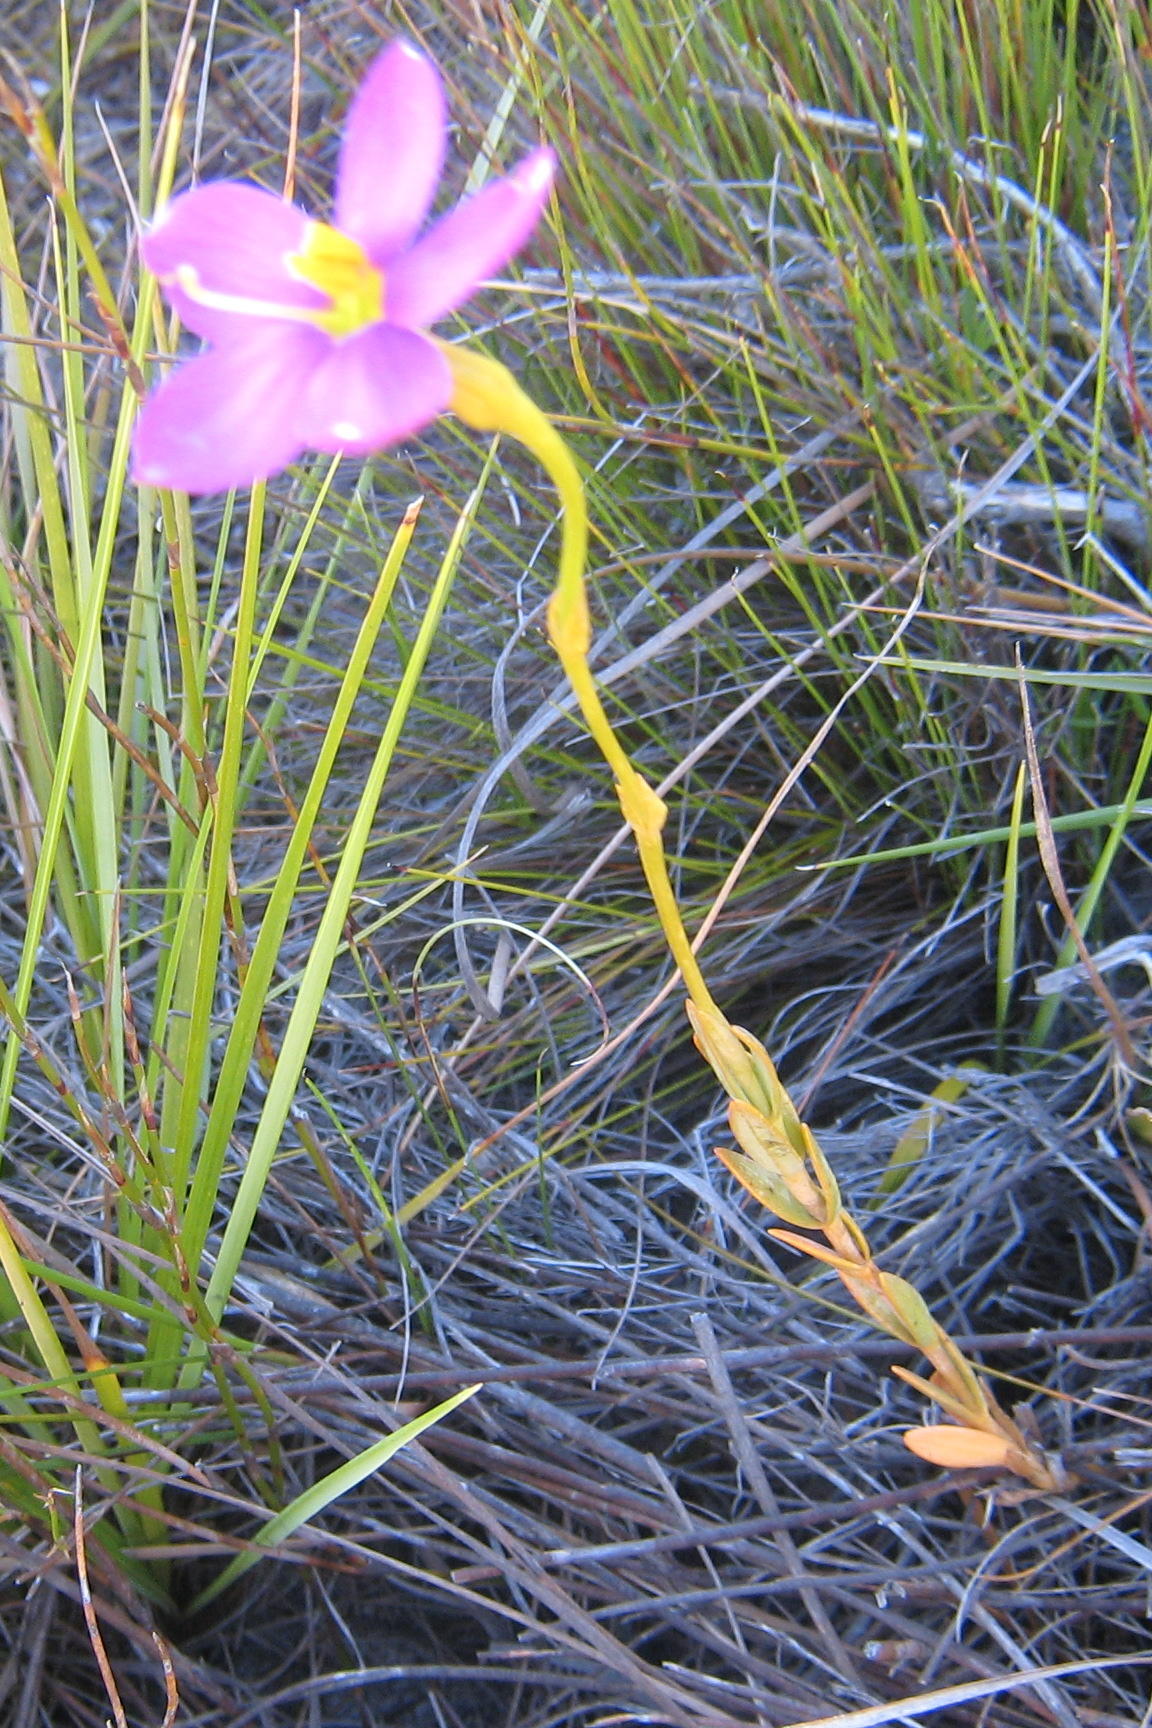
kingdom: Plantae
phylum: Tracheophyta
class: Magnoliopsida
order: Gentianales
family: Gentianaceae
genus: Chironia
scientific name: Chironia jasminoides
